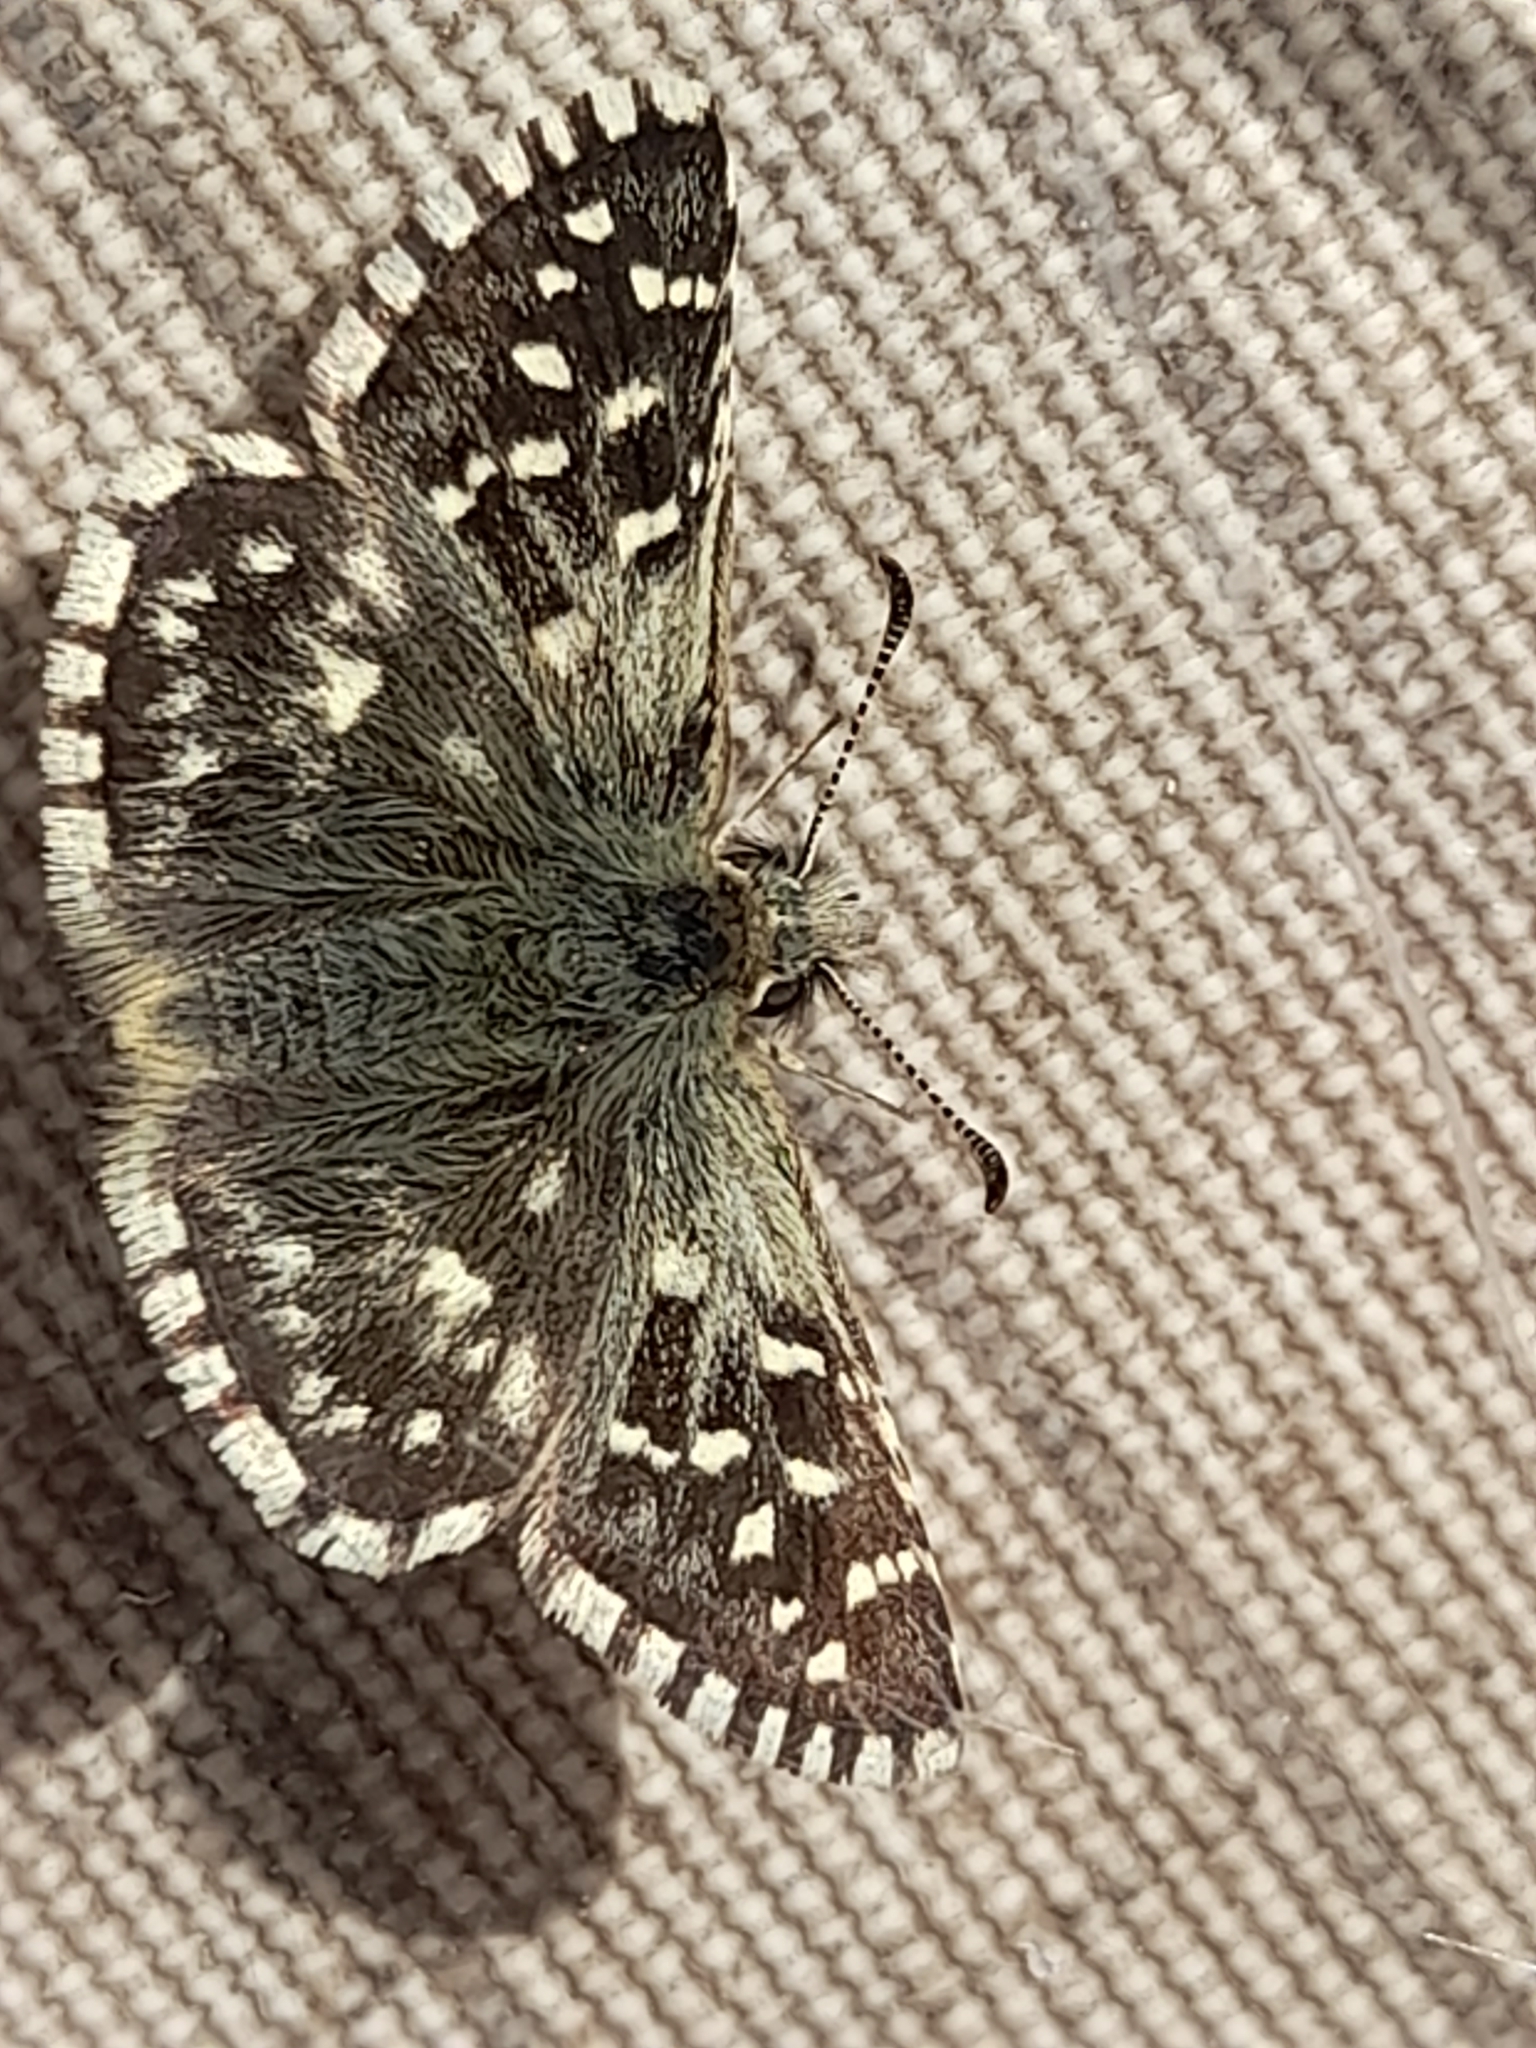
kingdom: Animalia
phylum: Arthropoda
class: Insecta
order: Lepidoptera
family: Hesperiidae
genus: Pyrgus
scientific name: Pyrgus malvoides
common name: Southern grizzled skipper
